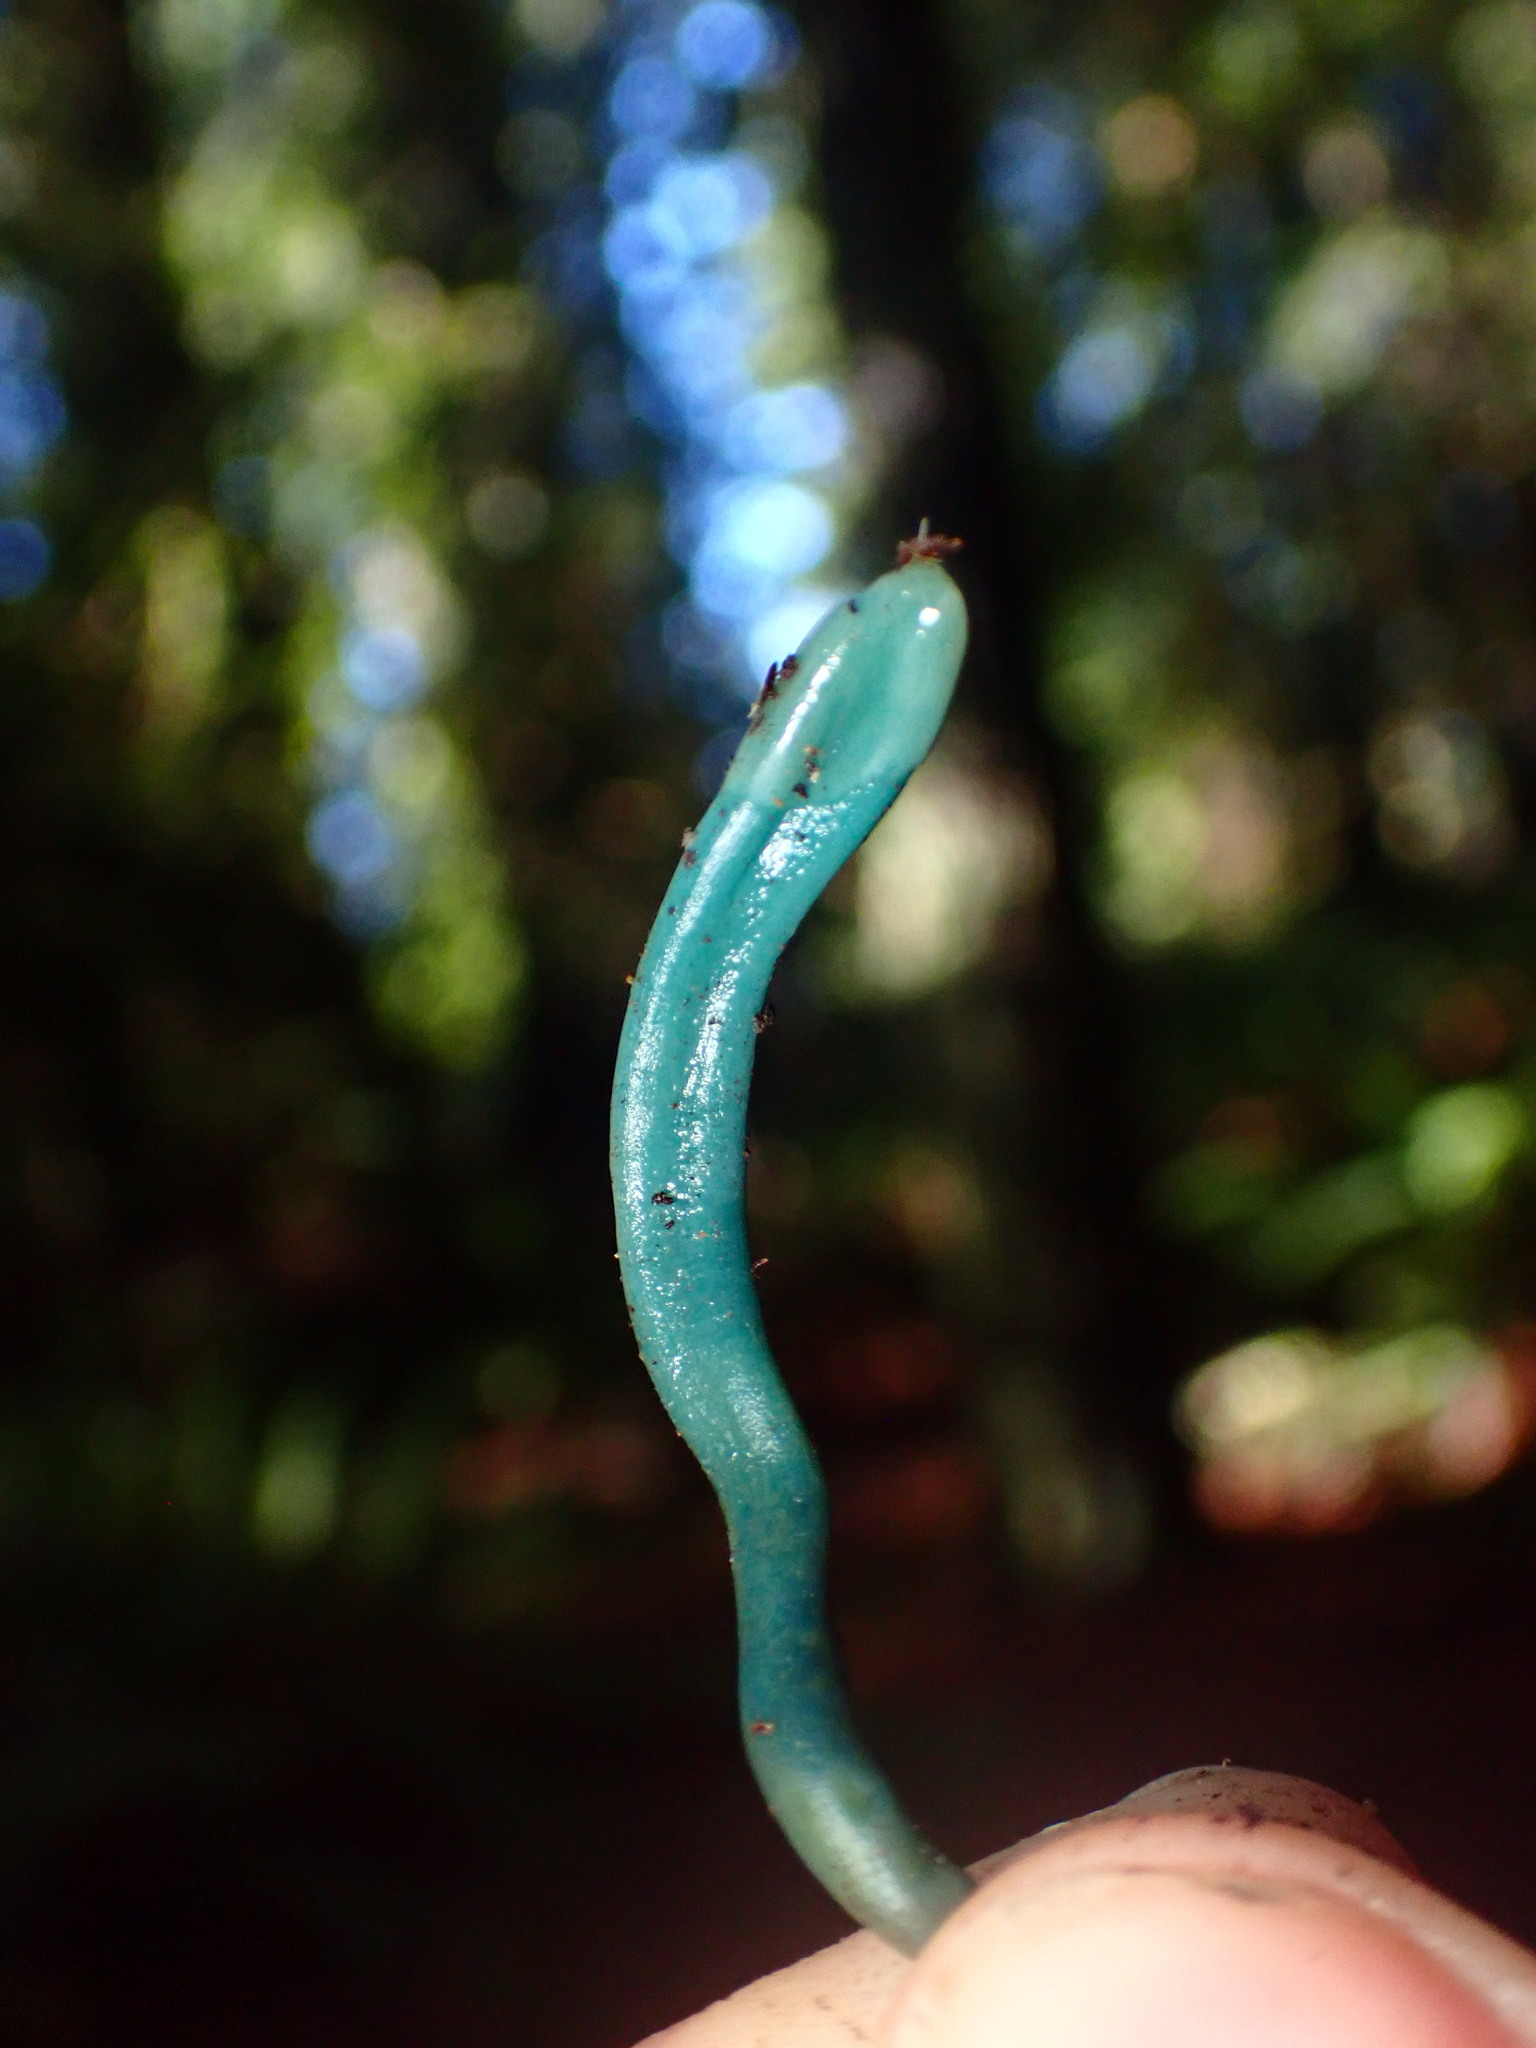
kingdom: Fungi
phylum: Ascomycota
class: Leotiomycetes
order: Leotiales
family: Leotiaceae
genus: Microglossum
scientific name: Microglossum viride
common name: Green earthtongue
